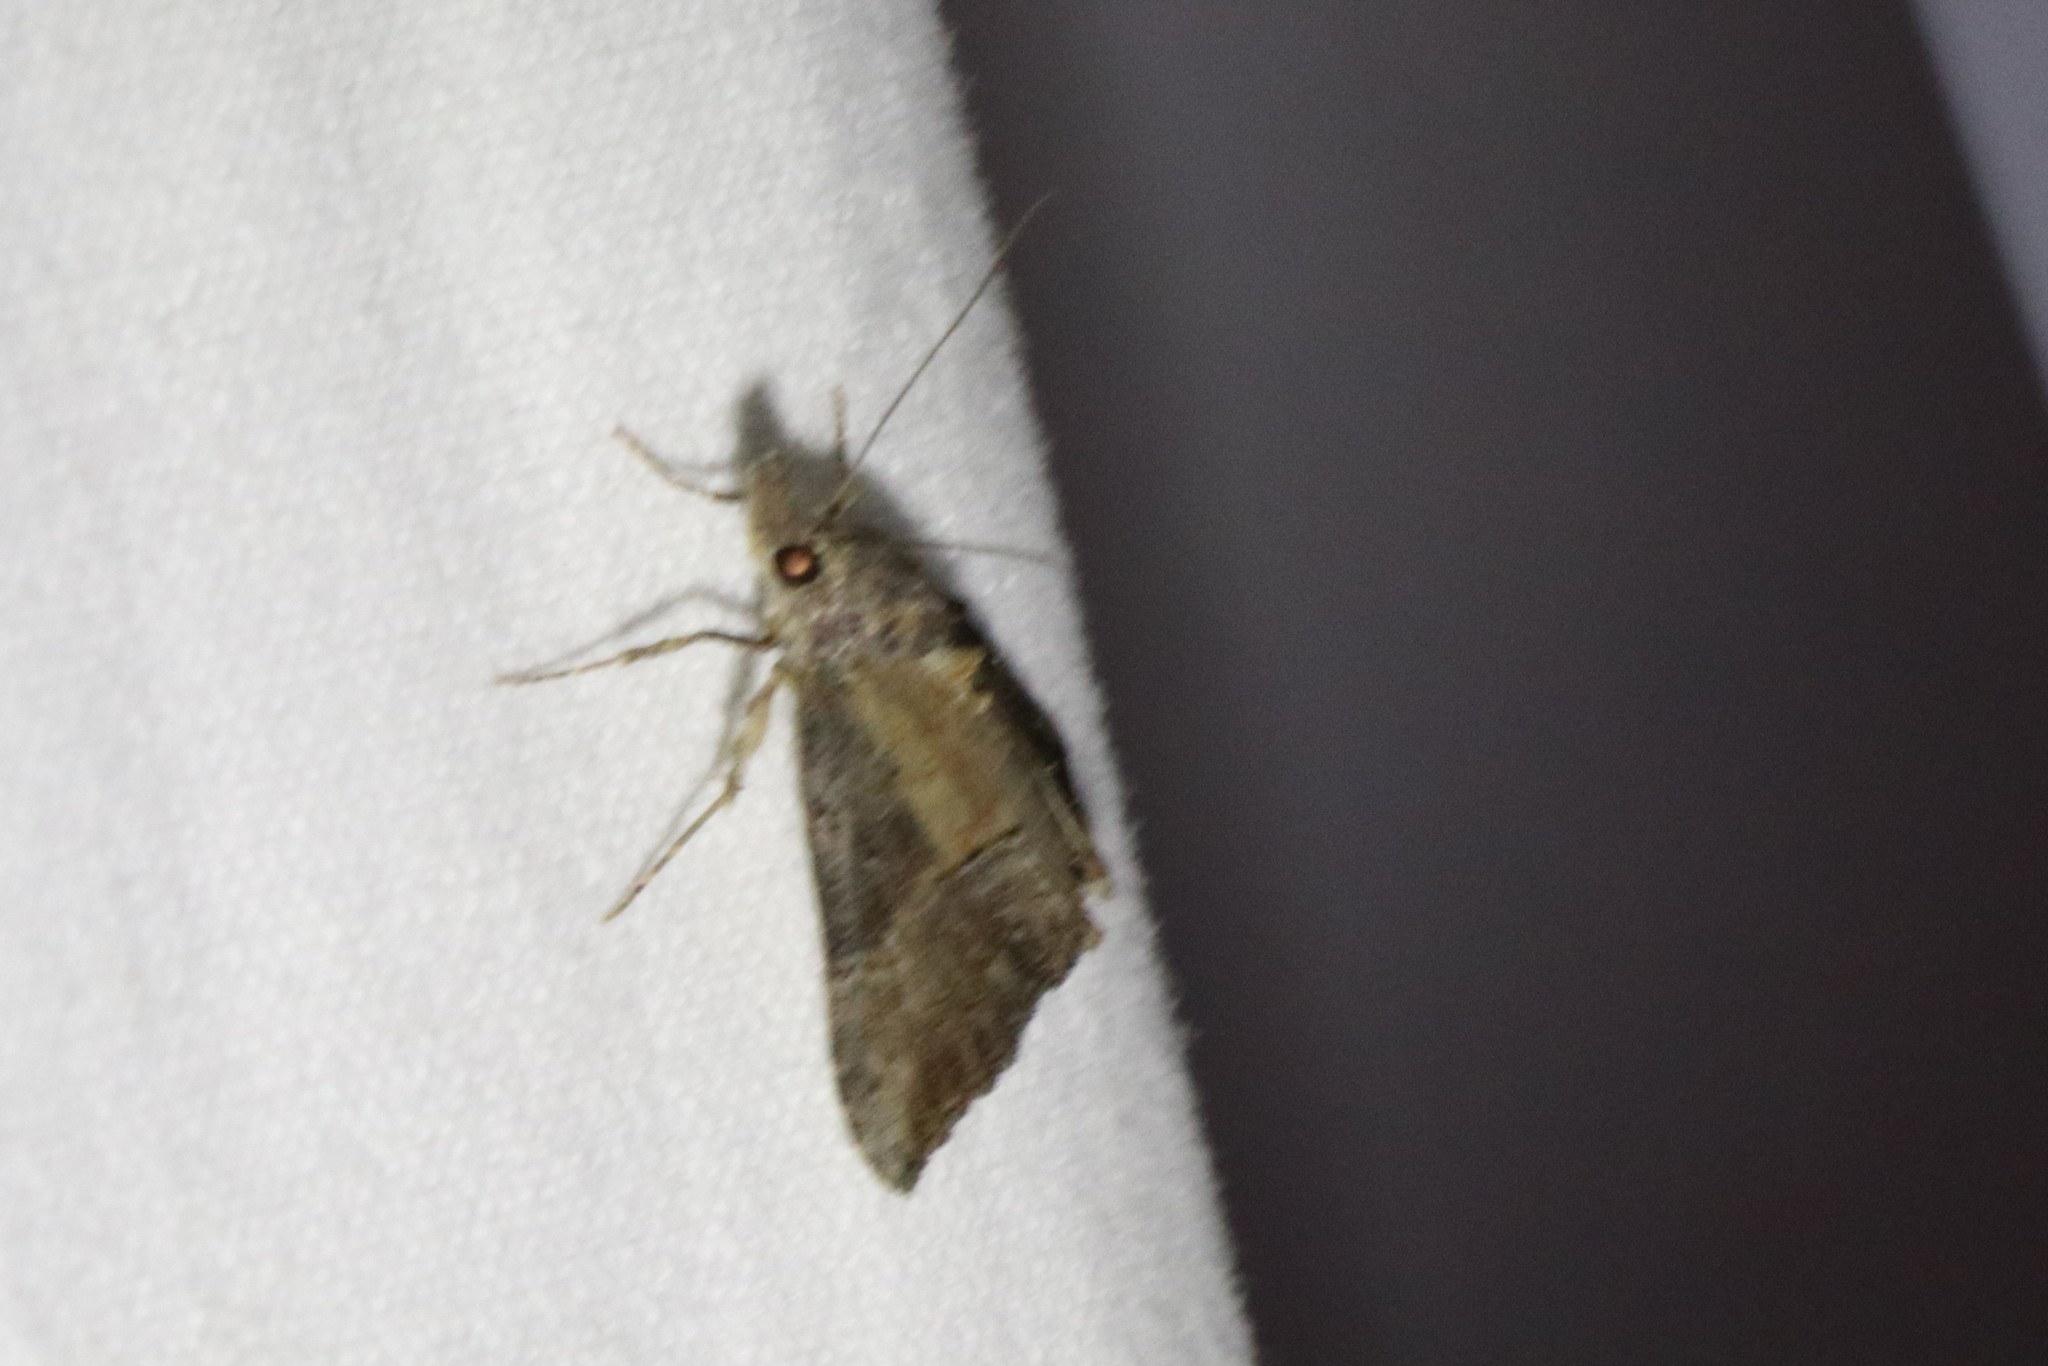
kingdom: Animalia
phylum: Arthropoda
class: Insecta
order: Lepidoptera
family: Erebidae
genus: Hypena
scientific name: Hypena scabra
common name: Green cloverworm
